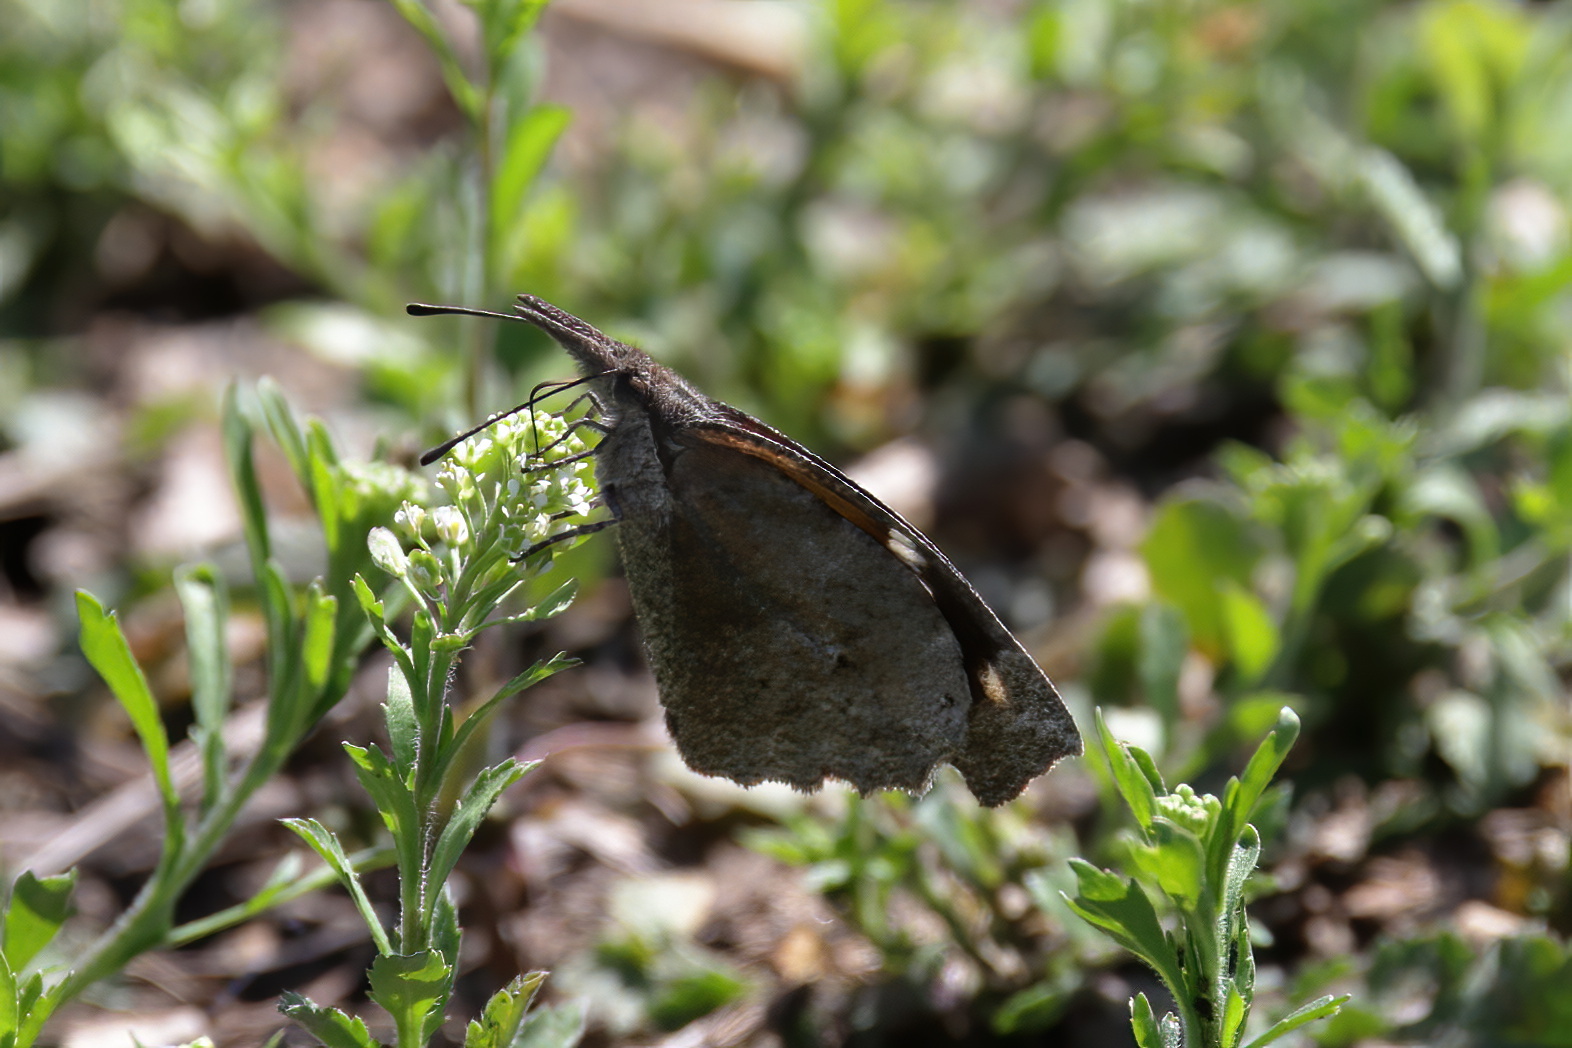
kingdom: Animalia
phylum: Arthropoda
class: Insecta
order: Lepidoptera
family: Nymphalidae
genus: Libytheana
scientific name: Libytheana carinenta
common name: American snout
